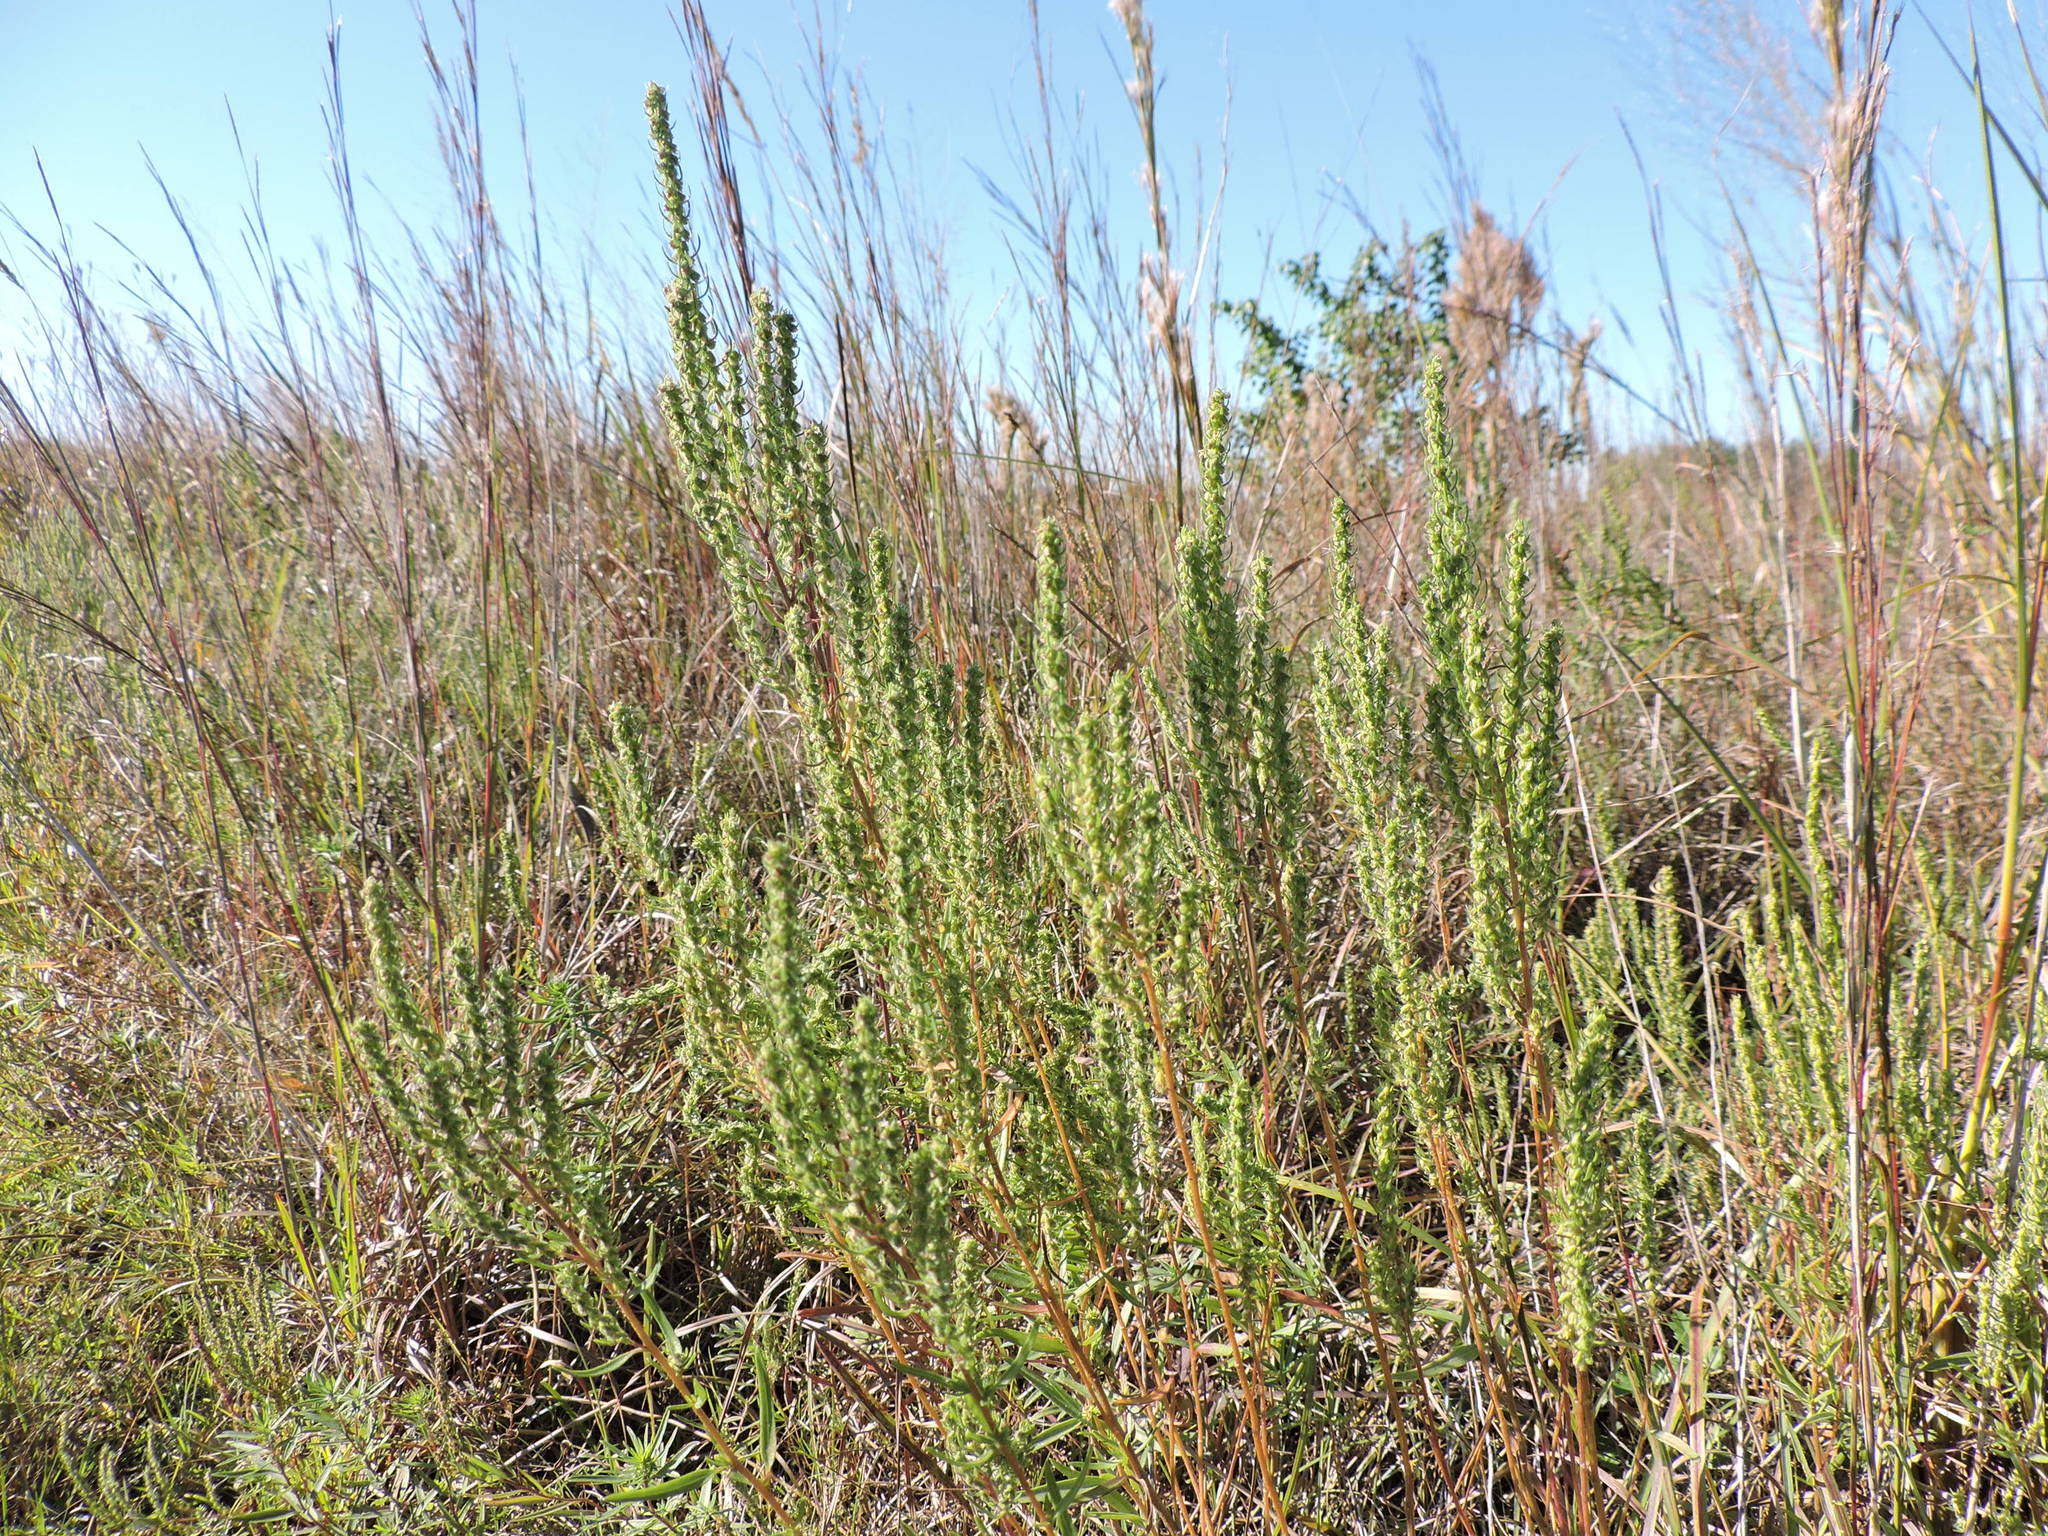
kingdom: Plantae
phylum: Tracheophyta
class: Magnoliopsida
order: Asterales
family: Asteraceae
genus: Iva
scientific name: Iva asperifolia
